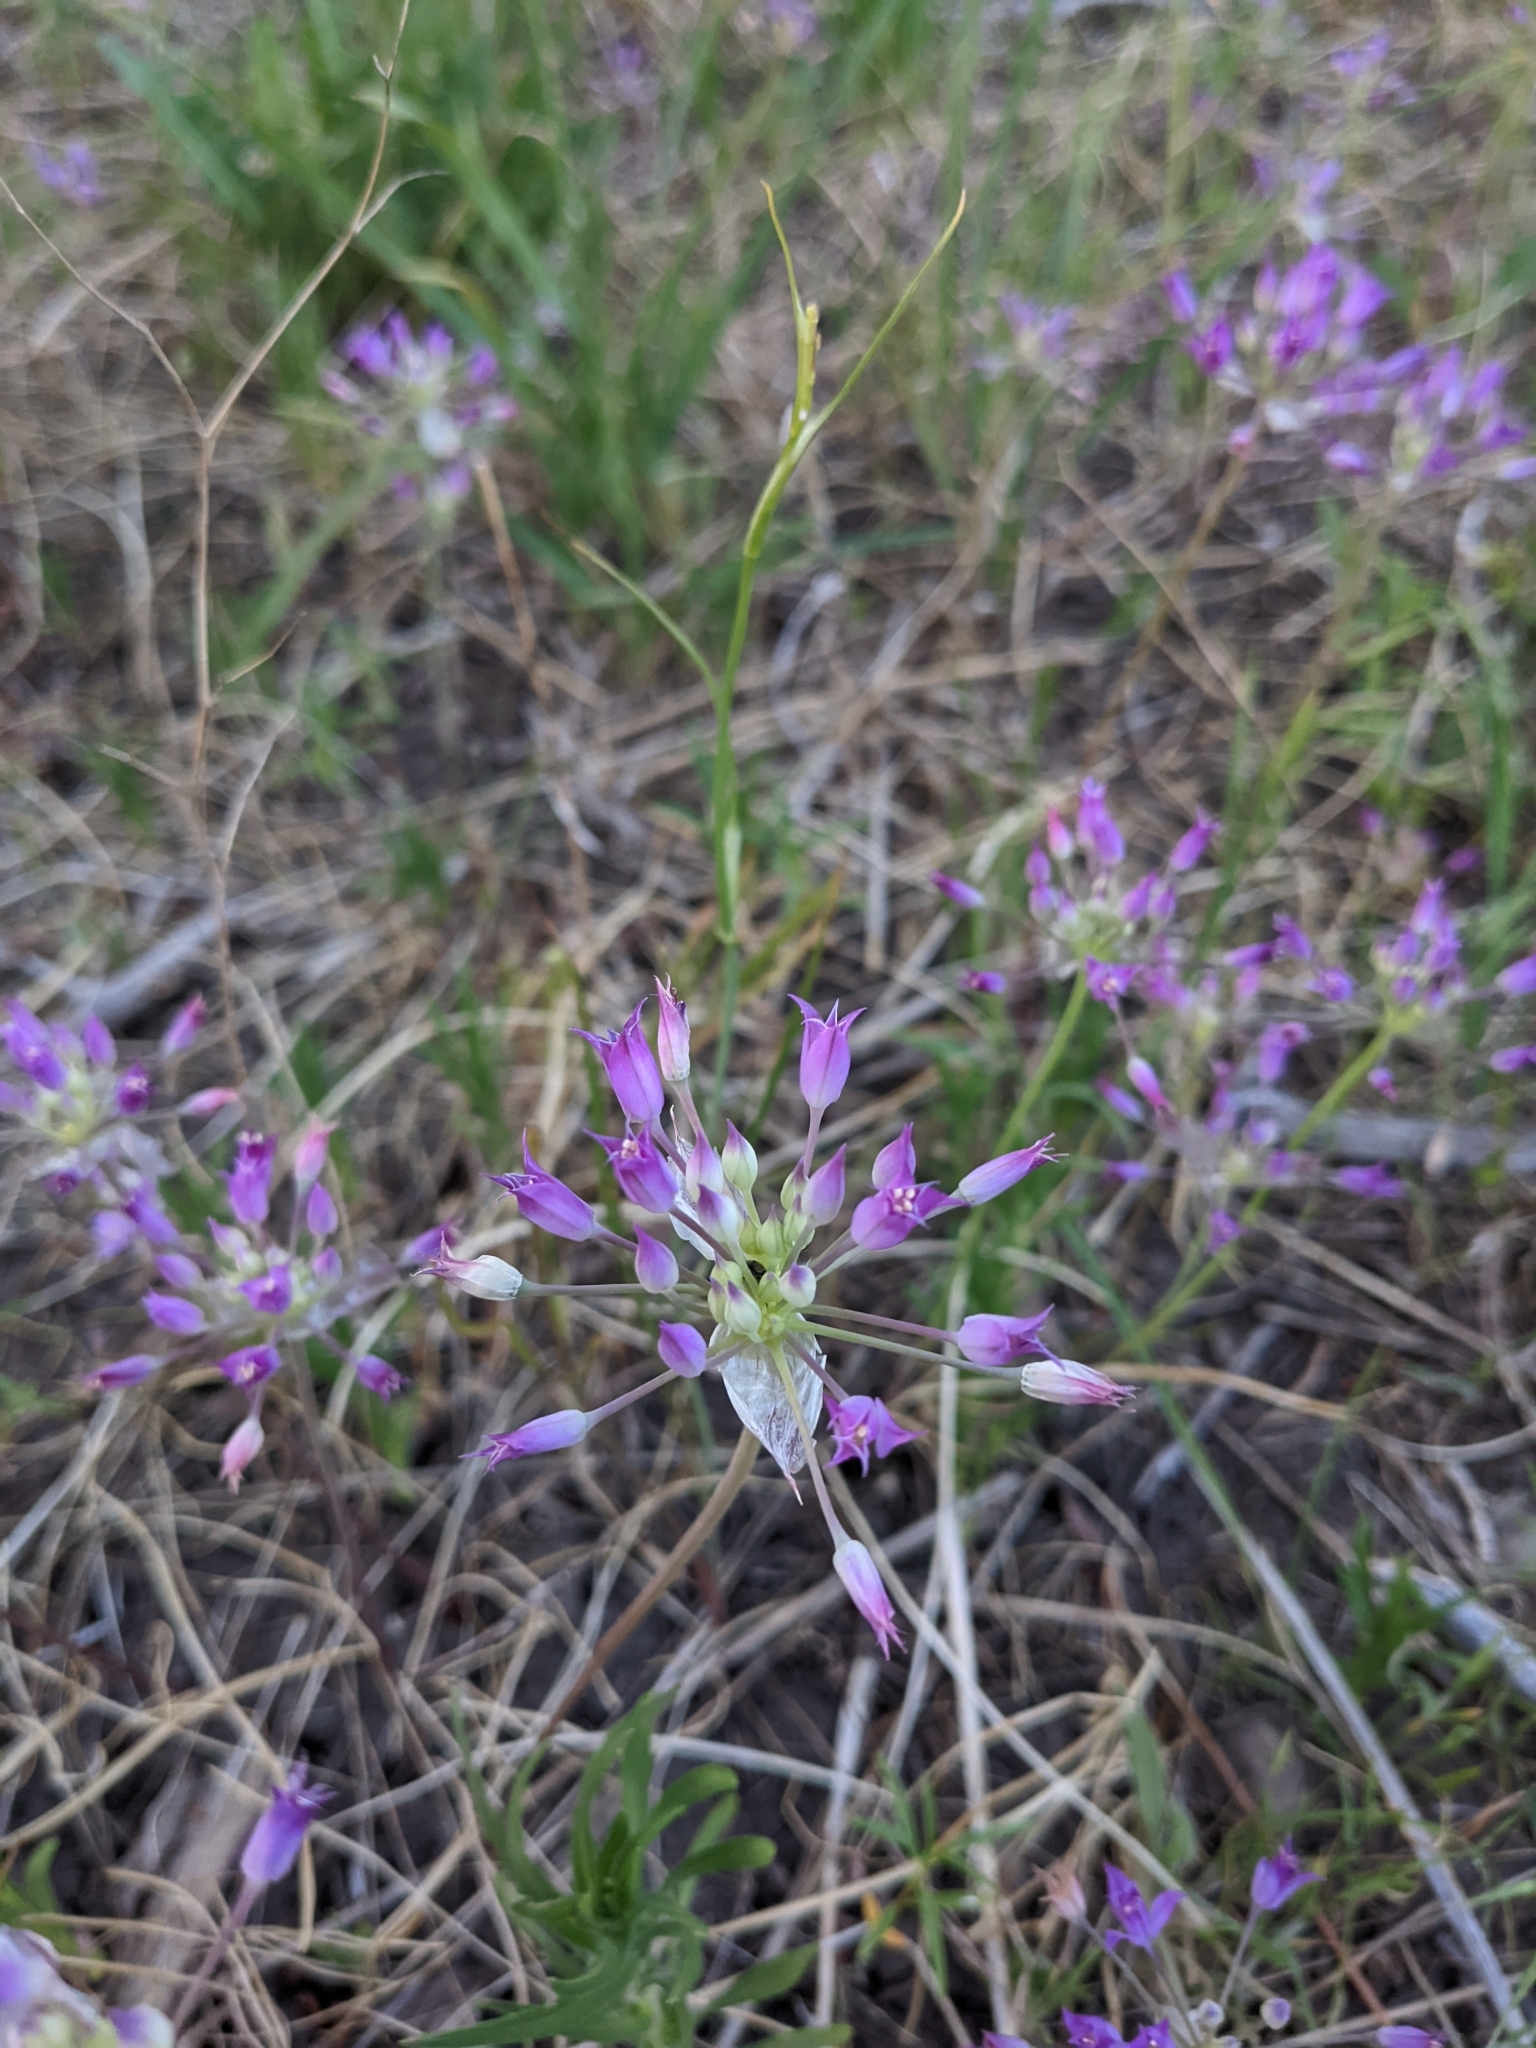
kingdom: Plantae
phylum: Tracheophyta
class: Liliopsida
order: Asparagales
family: Amaryllidaceae
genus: Allium
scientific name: Allium acuminatum
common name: Hooker's onion
